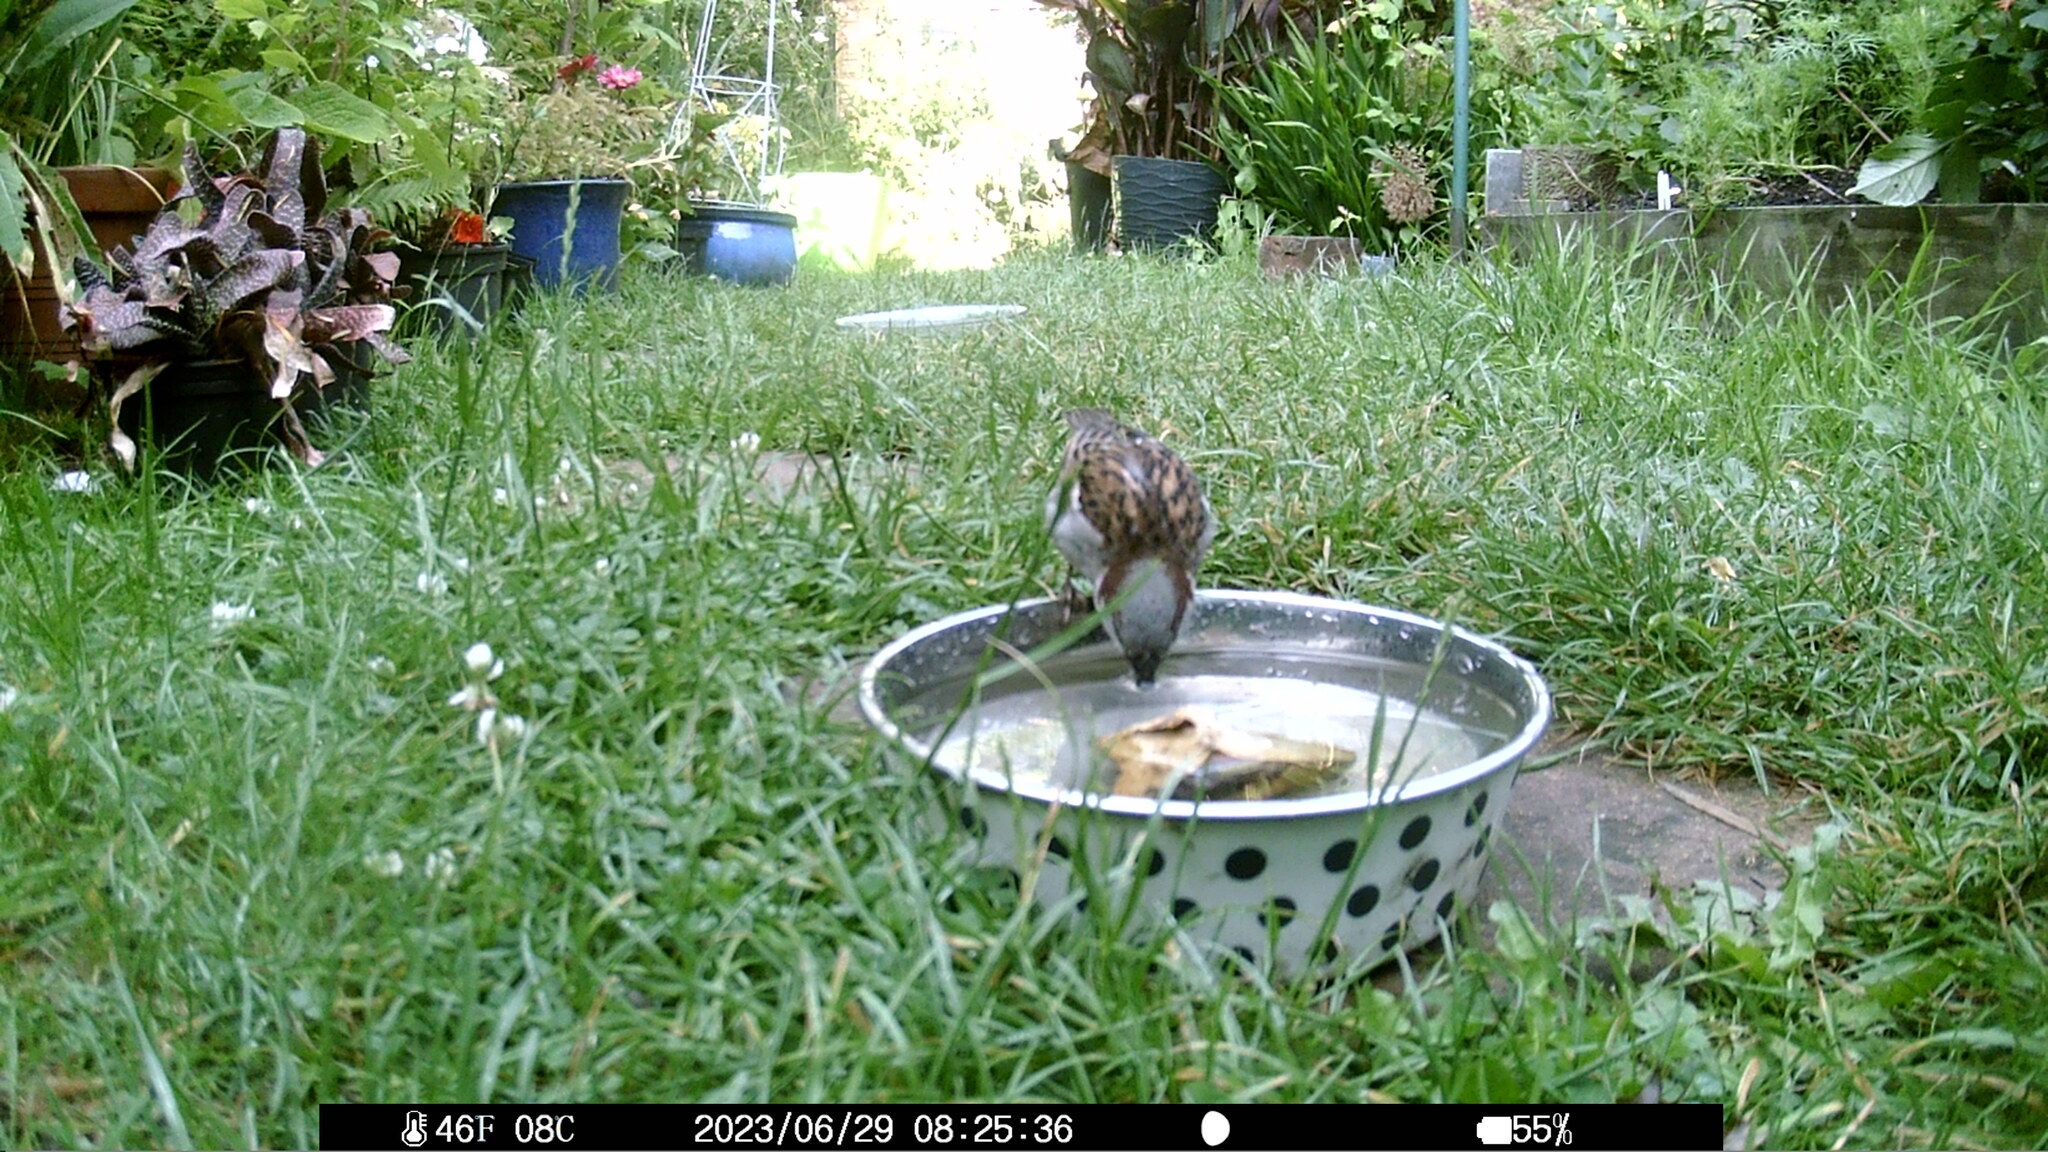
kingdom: Animalia
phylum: Chordata
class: Aves
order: Passeriformes
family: Passeridae
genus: Passer
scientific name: Passer domesticus
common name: House sparrow
